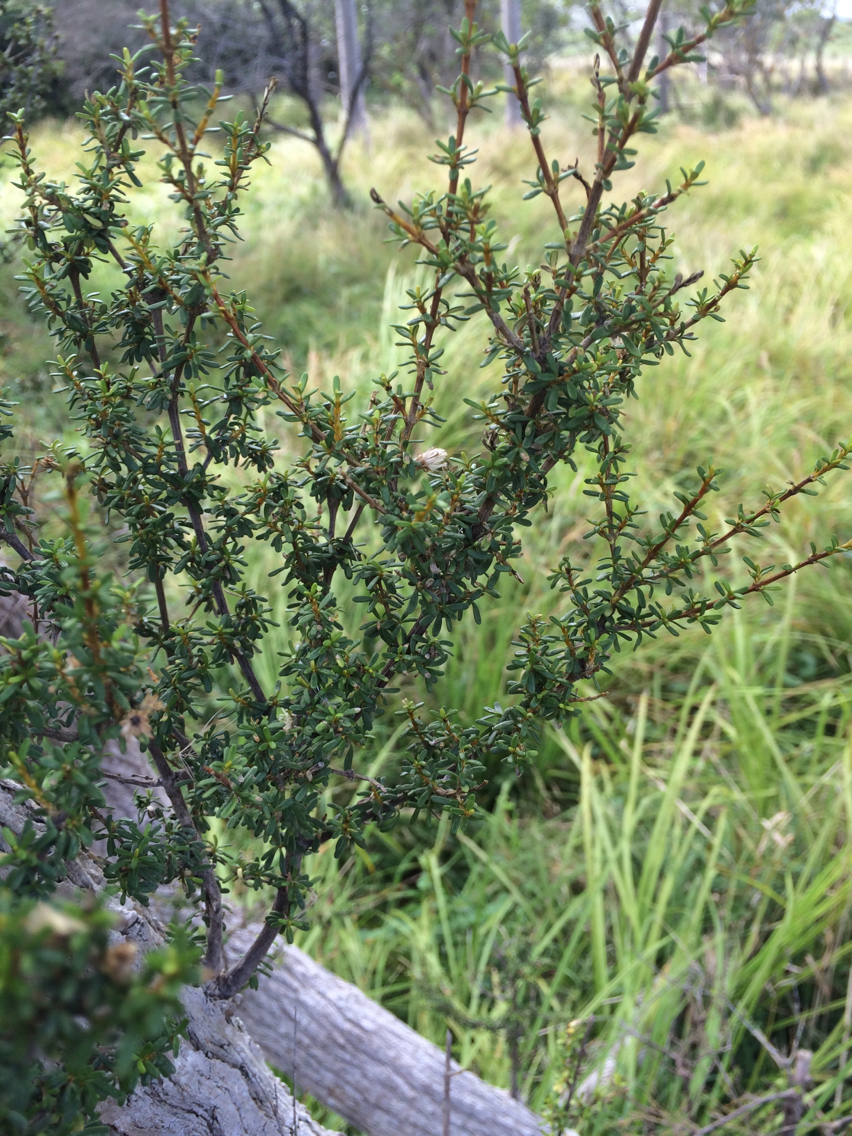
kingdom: Plantae
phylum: Tracheophyta
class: Magnoliopsida
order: Asterales
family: Asteraceae
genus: Olearia
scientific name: Olearia solandri
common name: Coastal daisybush
